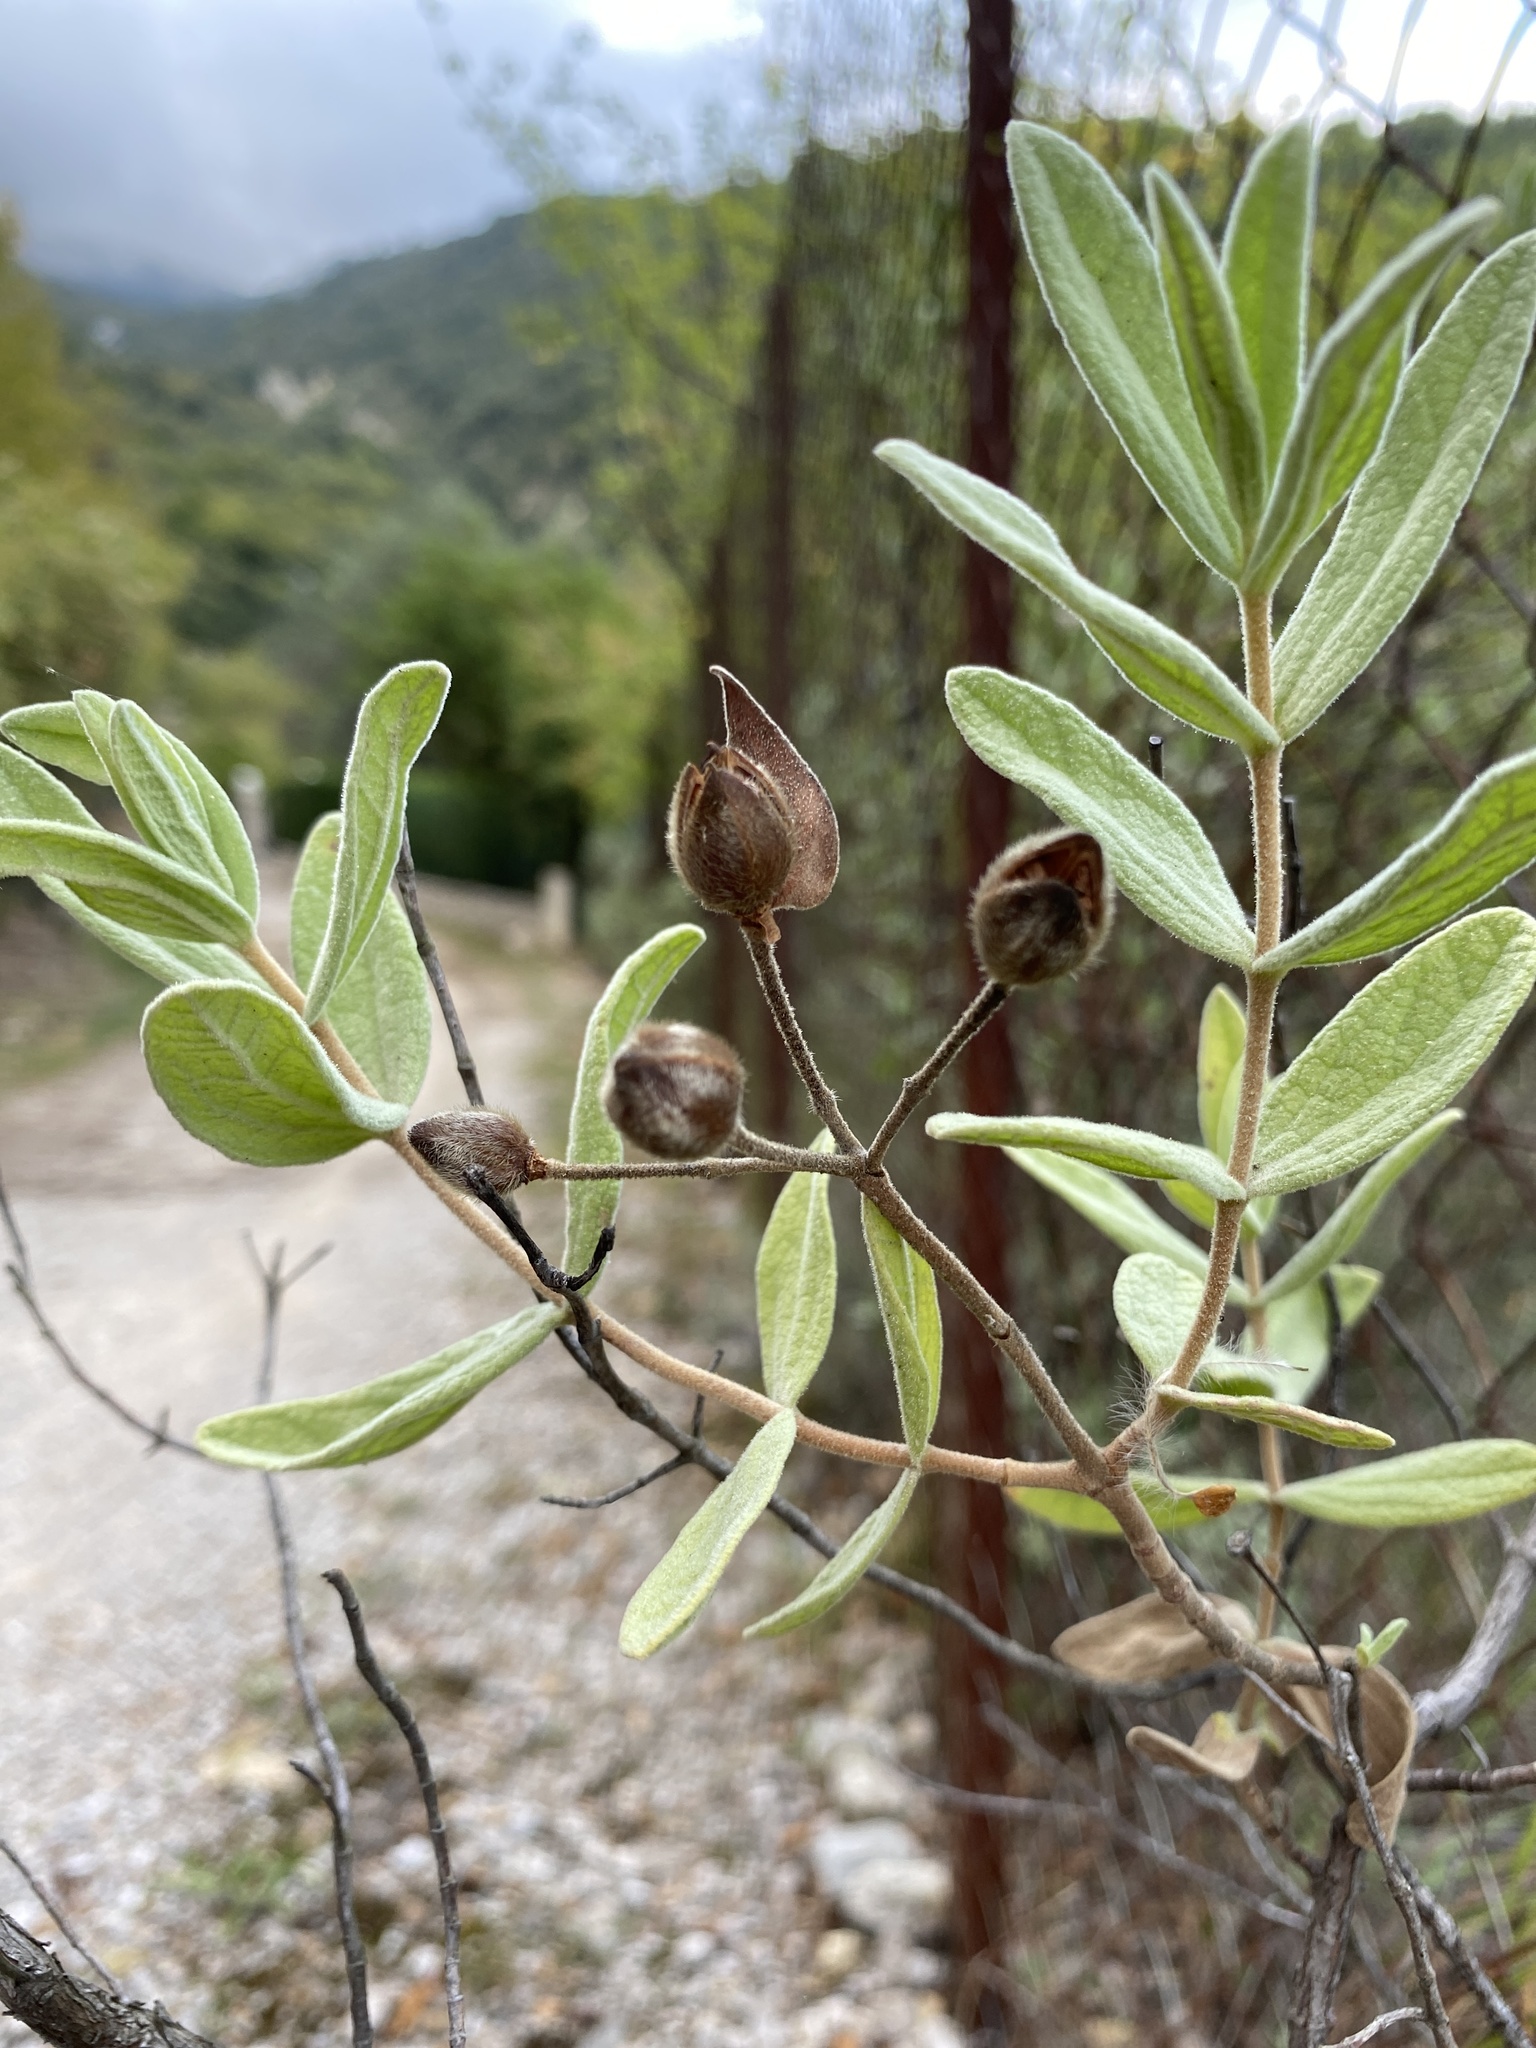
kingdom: Plantae
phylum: Tracheophyta
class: Magnoliopsida
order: Malvales
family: Cistaceae
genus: Cistus
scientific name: Cistus albidus
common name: White-leaf rock-rose
